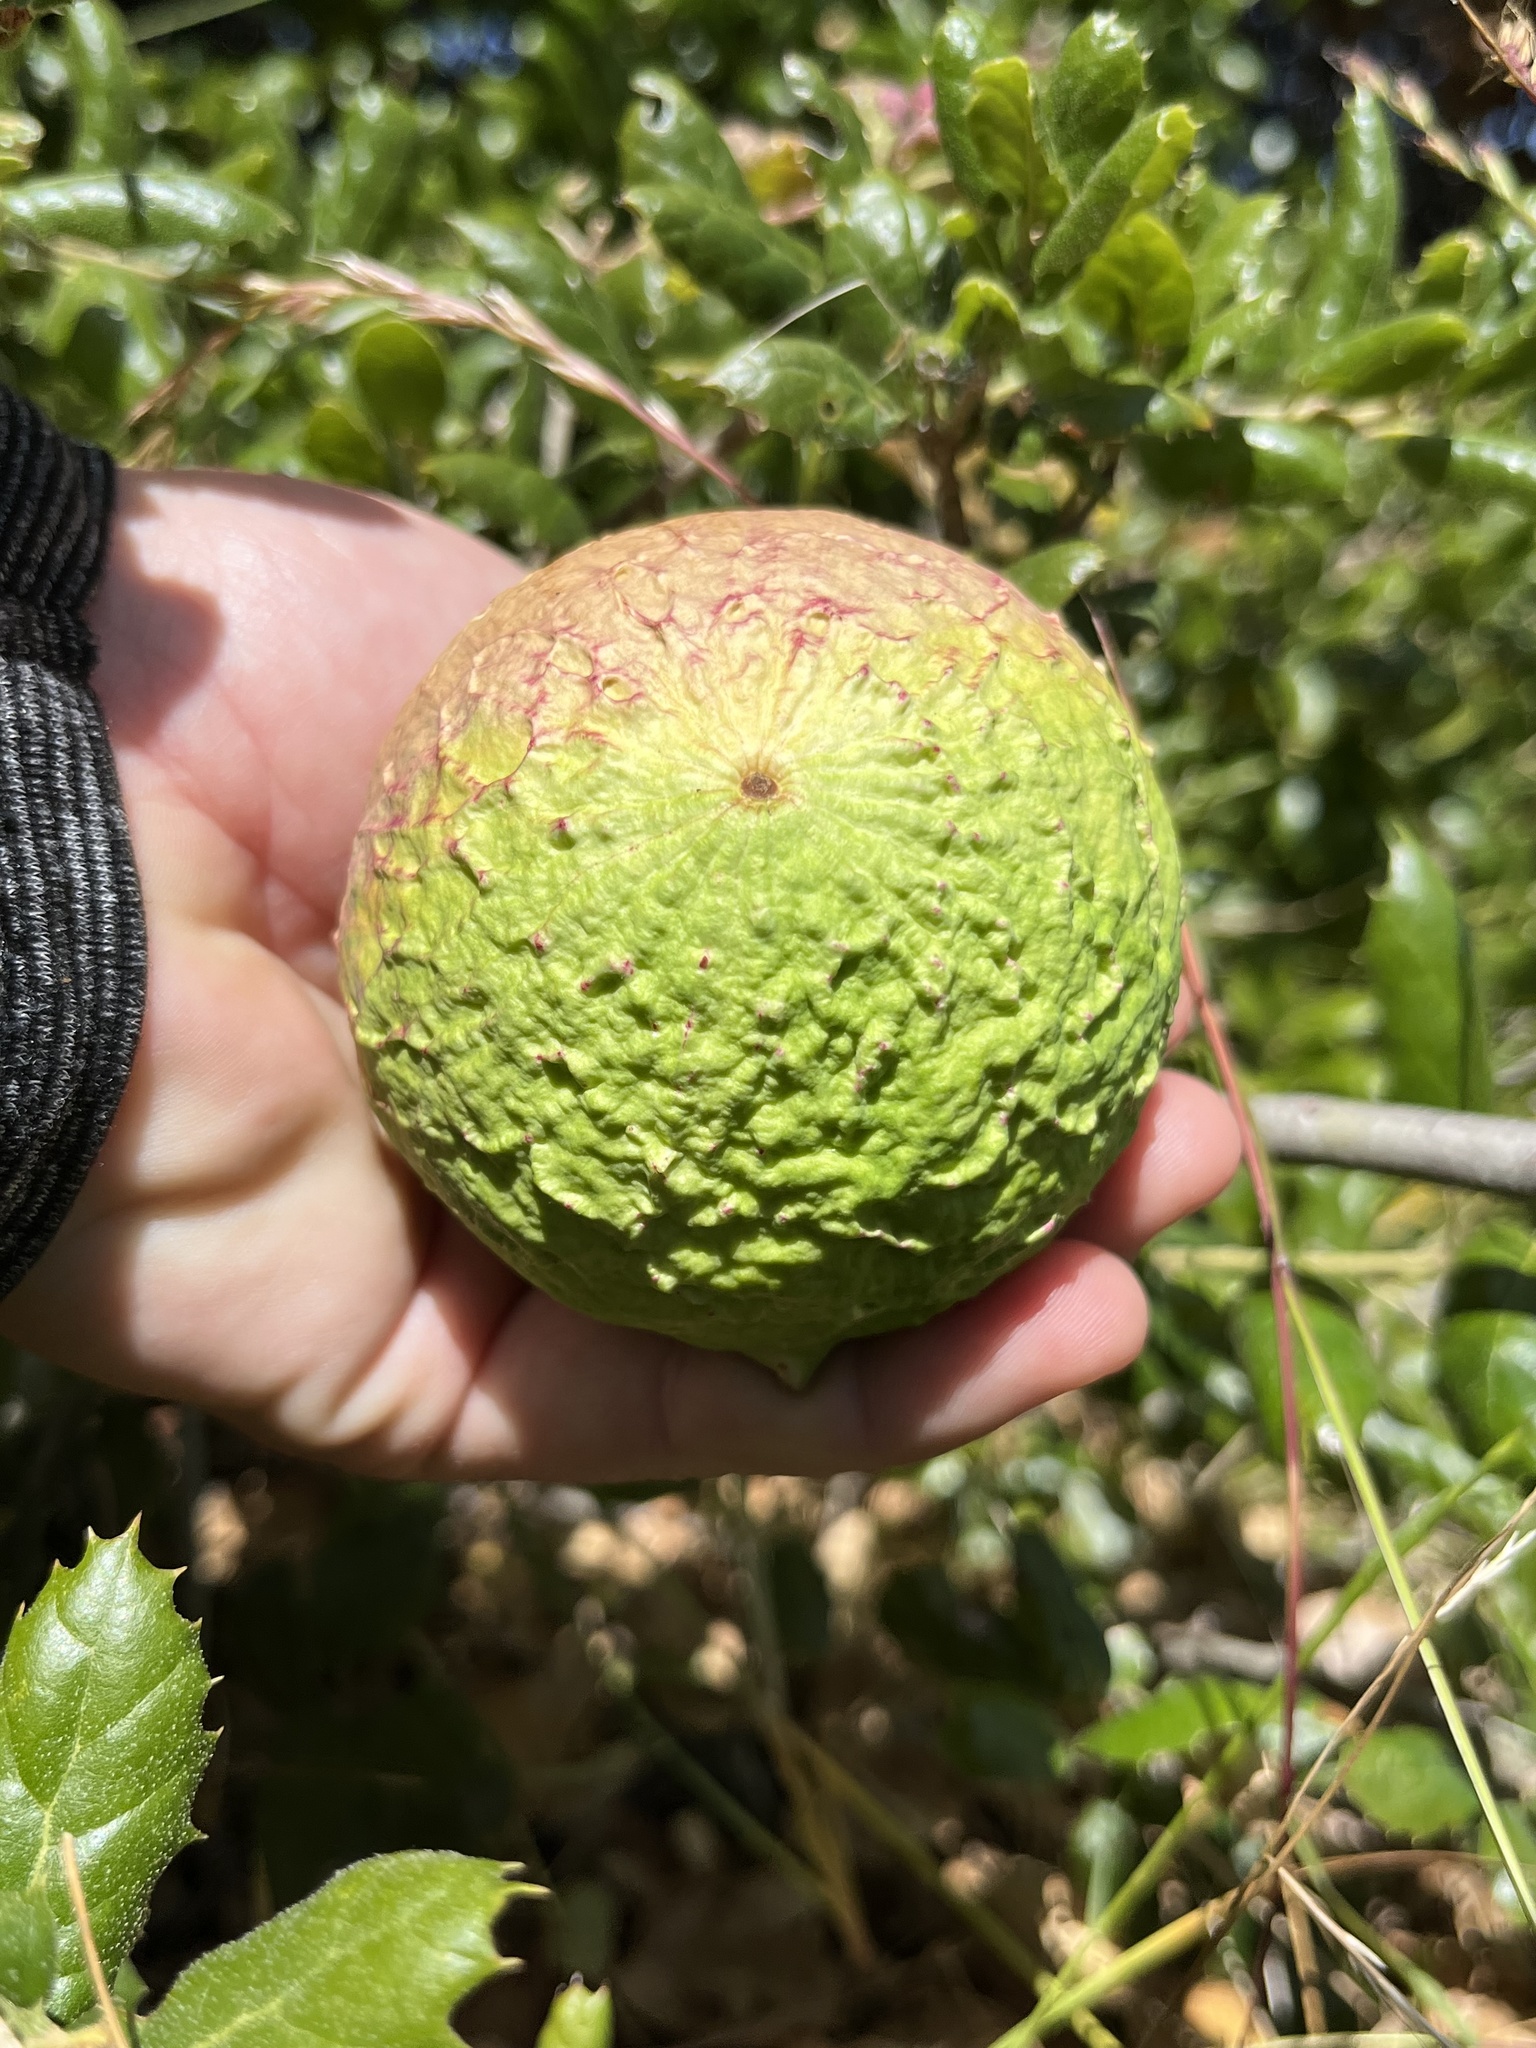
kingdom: Animalia
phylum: Arthropoda
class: Insecta
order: Hymenoptera
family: Cynipidae
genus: Amphibolips
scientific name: Amphibolips quercuspomiformis
